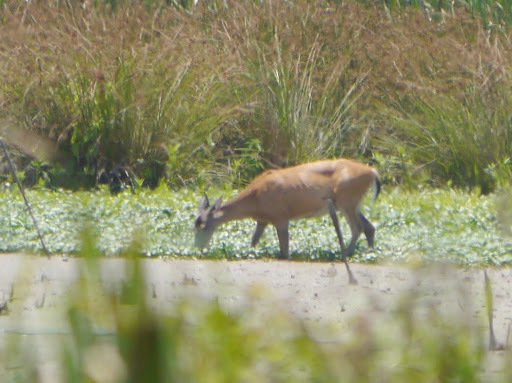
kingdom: Animalia
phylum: Chordata
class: Mammalia
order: Artiodactyla
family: Cervidae
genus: Odocoileus
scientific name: Odocoileus virginianus
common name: White-tailed deer
